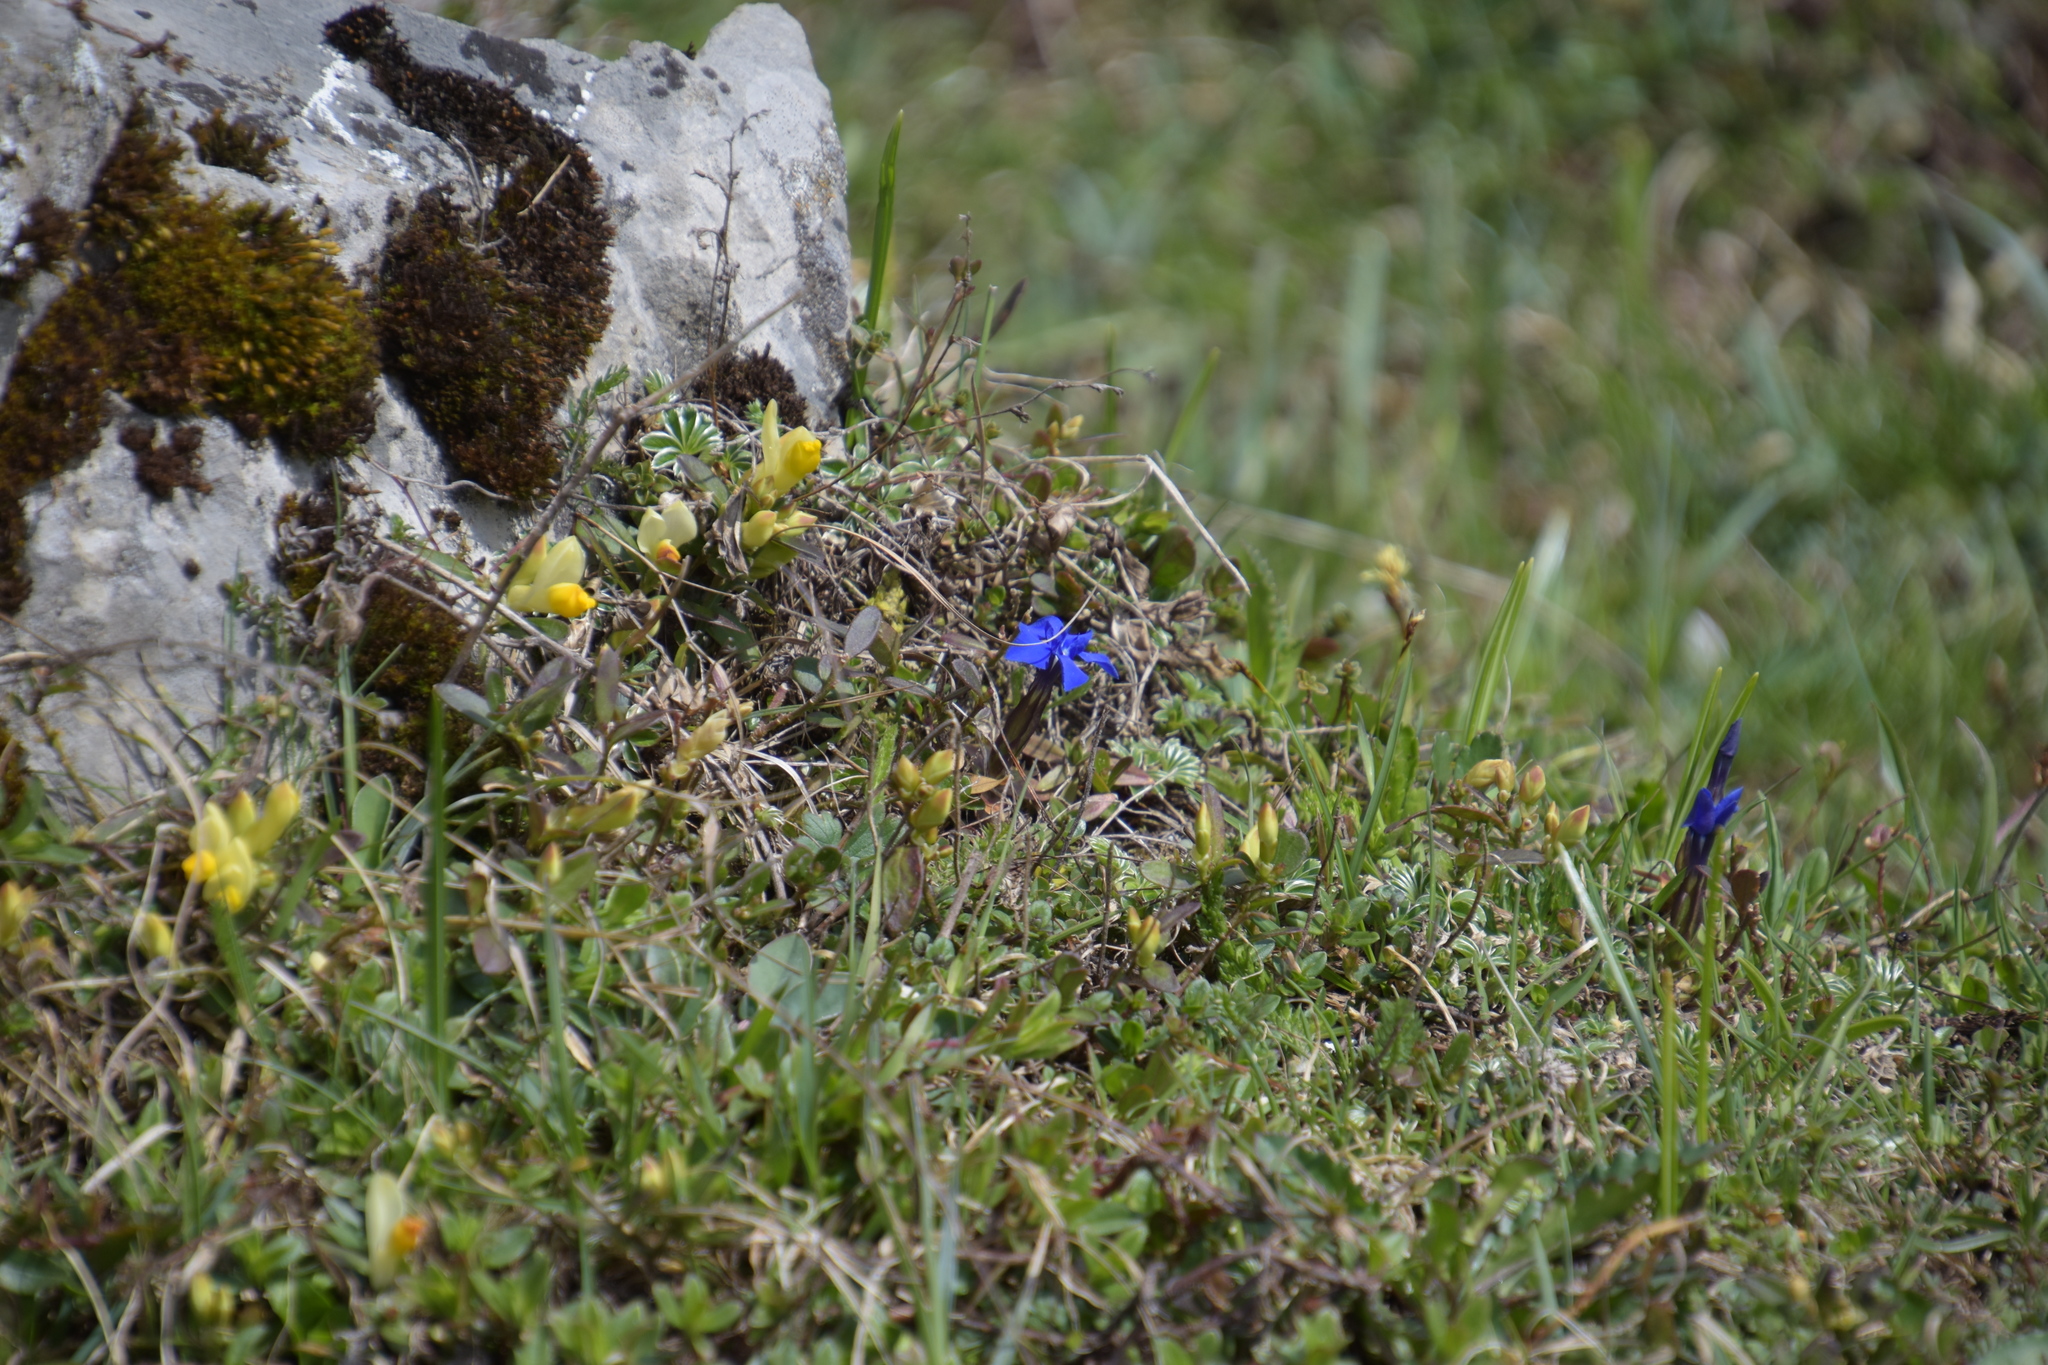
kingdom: Plantae
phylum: Tracheophyta
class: Magnoliopsida
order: Gentianales
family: Gentianaceae
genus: Gentiana
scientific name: Gentiana verna
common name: Spring gentian
